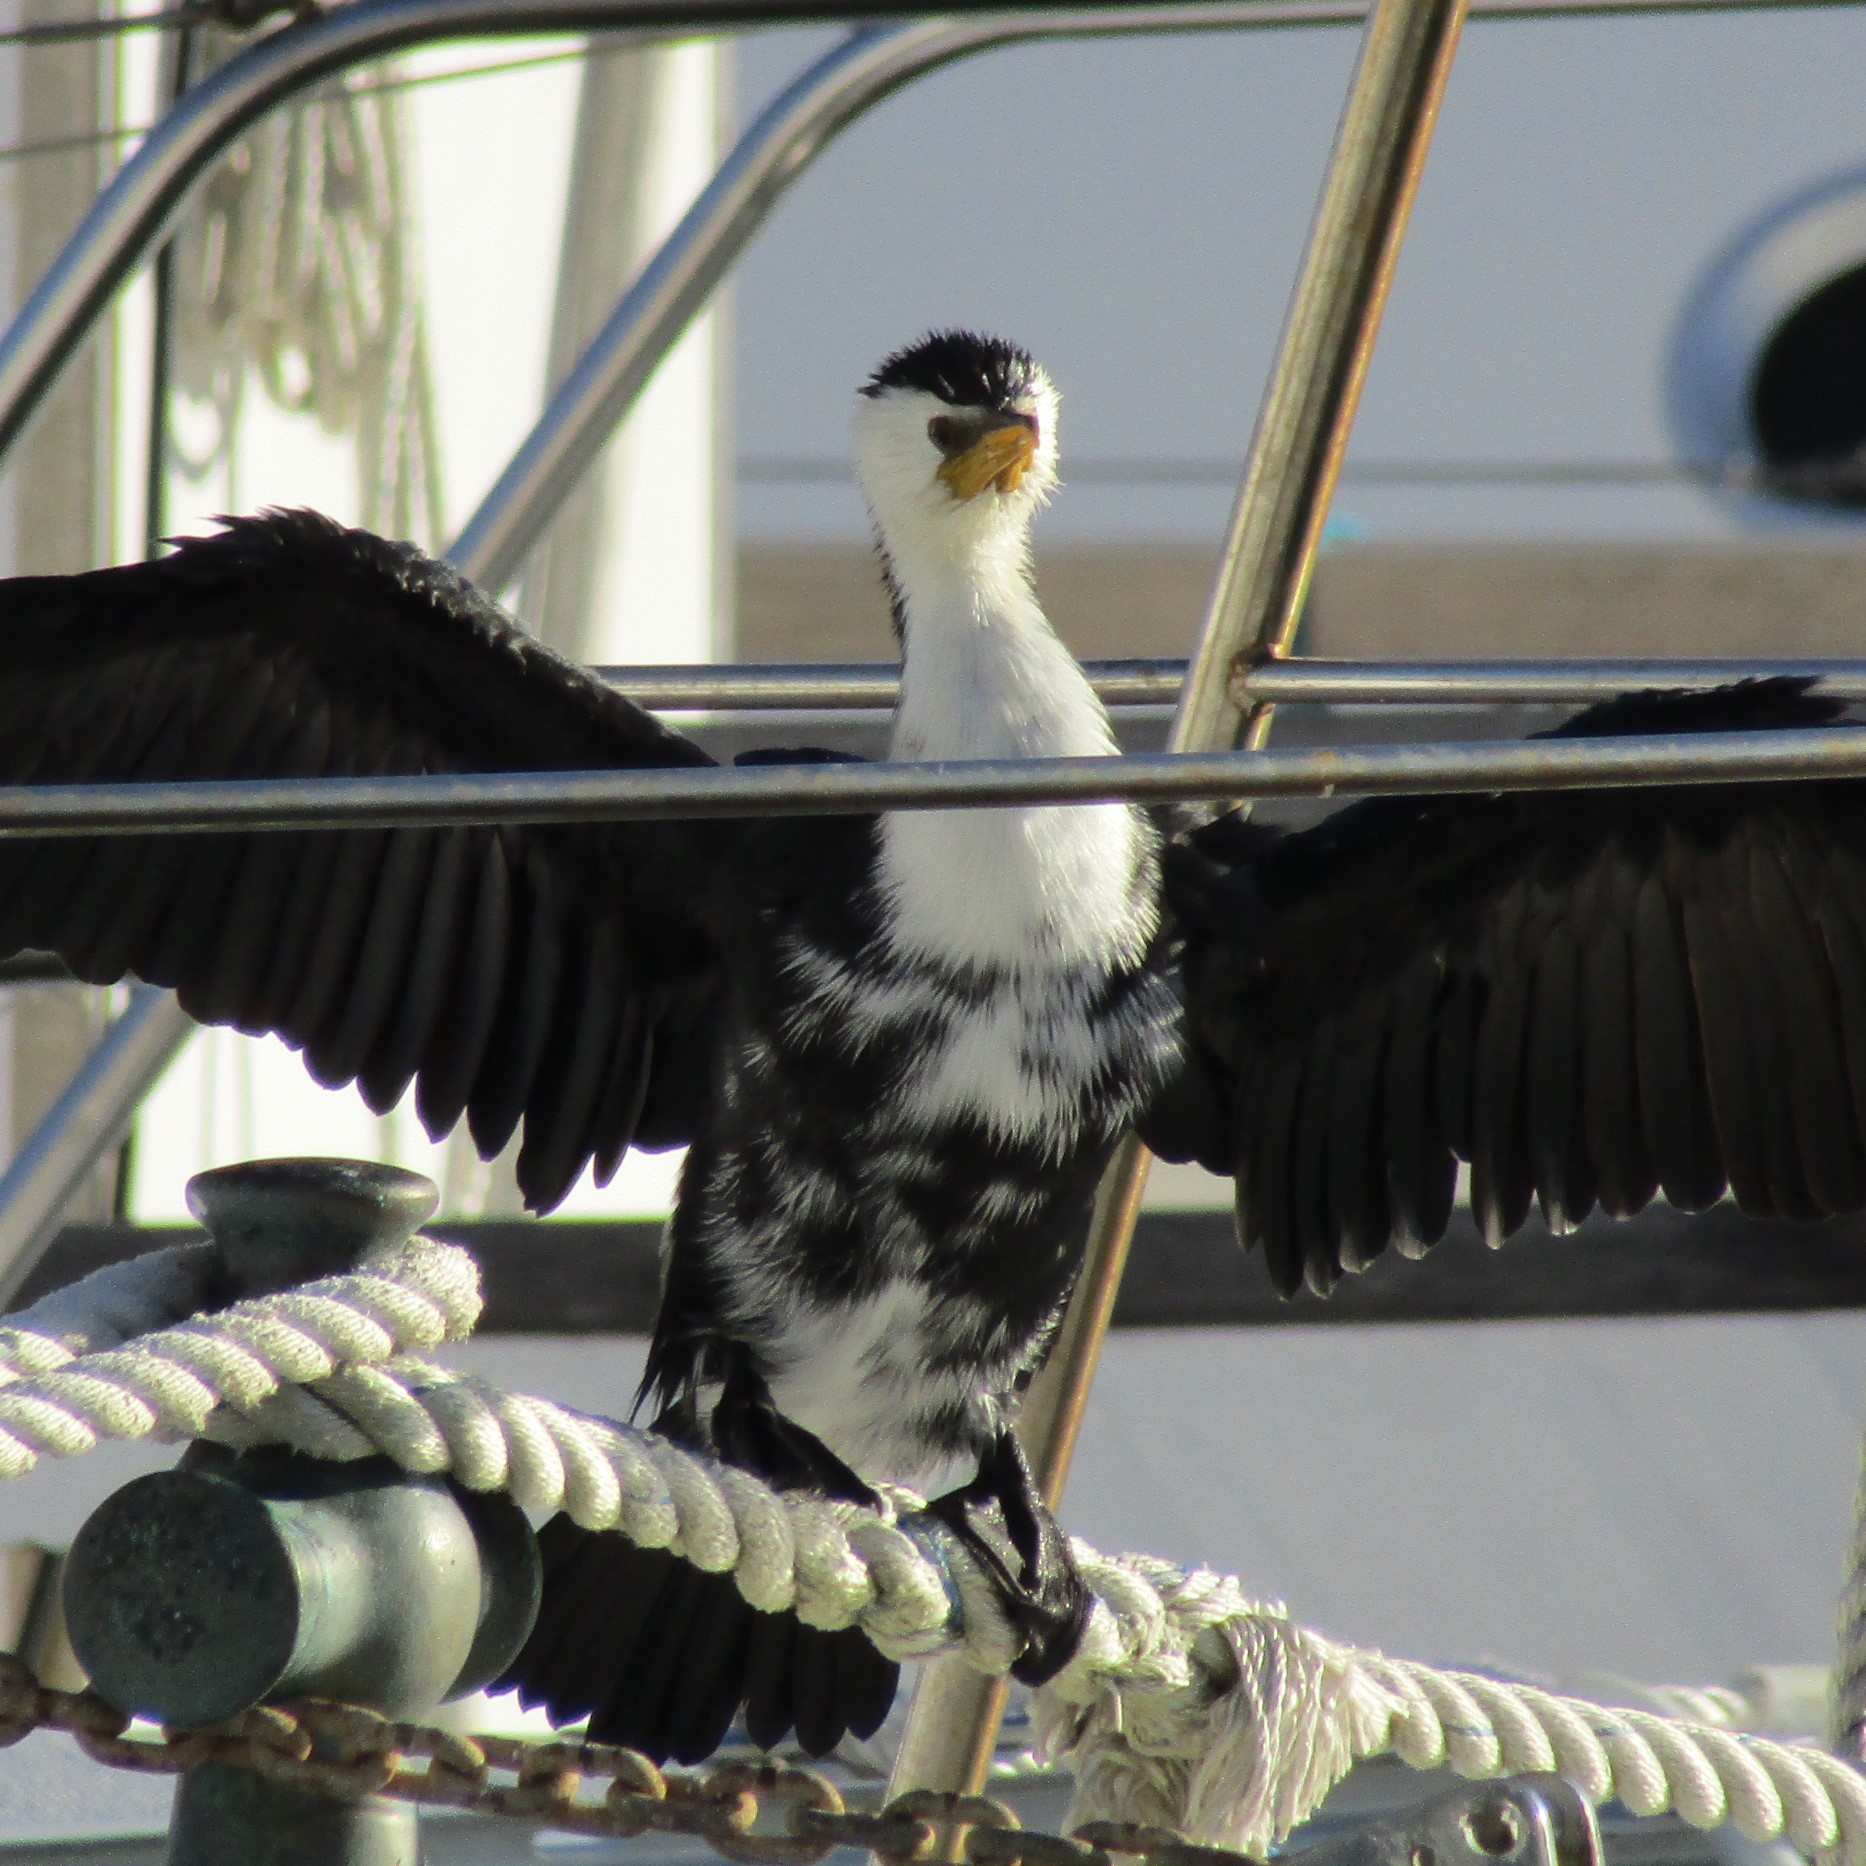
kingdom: Animalia
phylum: Chordata
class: Aves
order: Suliformes
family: Phalacrocoracidae
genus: Microcarbo
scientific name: Microcarbo melanoleucos
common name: Little pied cormorant
